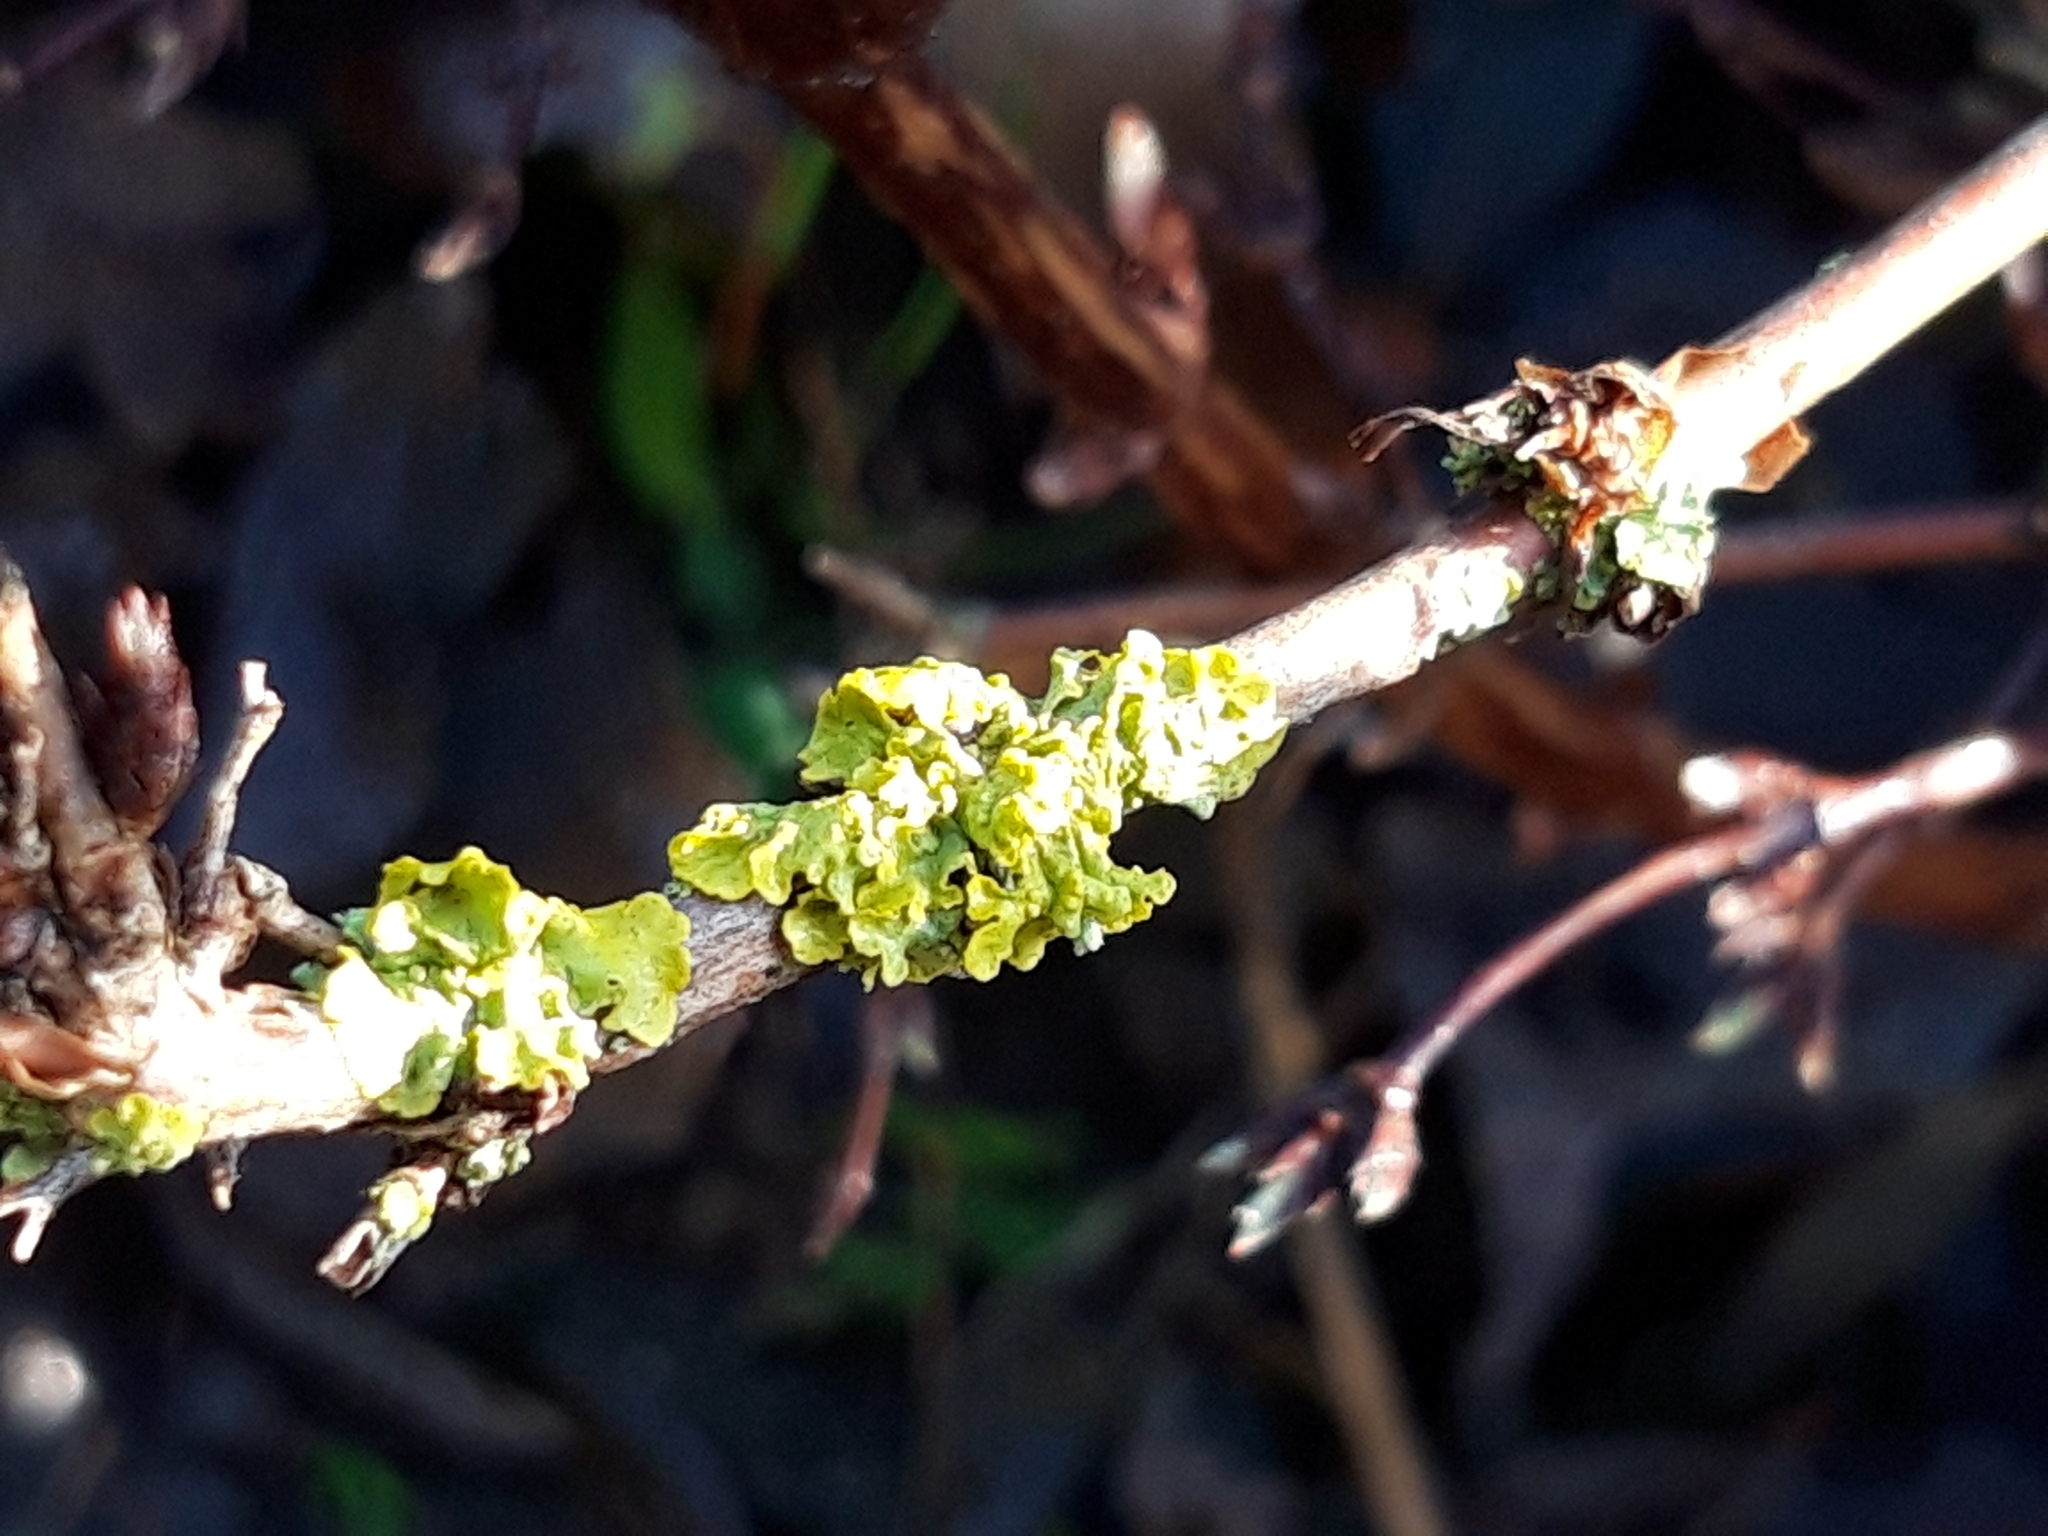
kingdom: Fungi
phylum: Ascomycota
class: Lecanoromycetes
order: Teloschistales
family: Teloschistaceae
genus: Xanthoria
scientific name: Xanthoria parietina
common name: Common orange lichen
